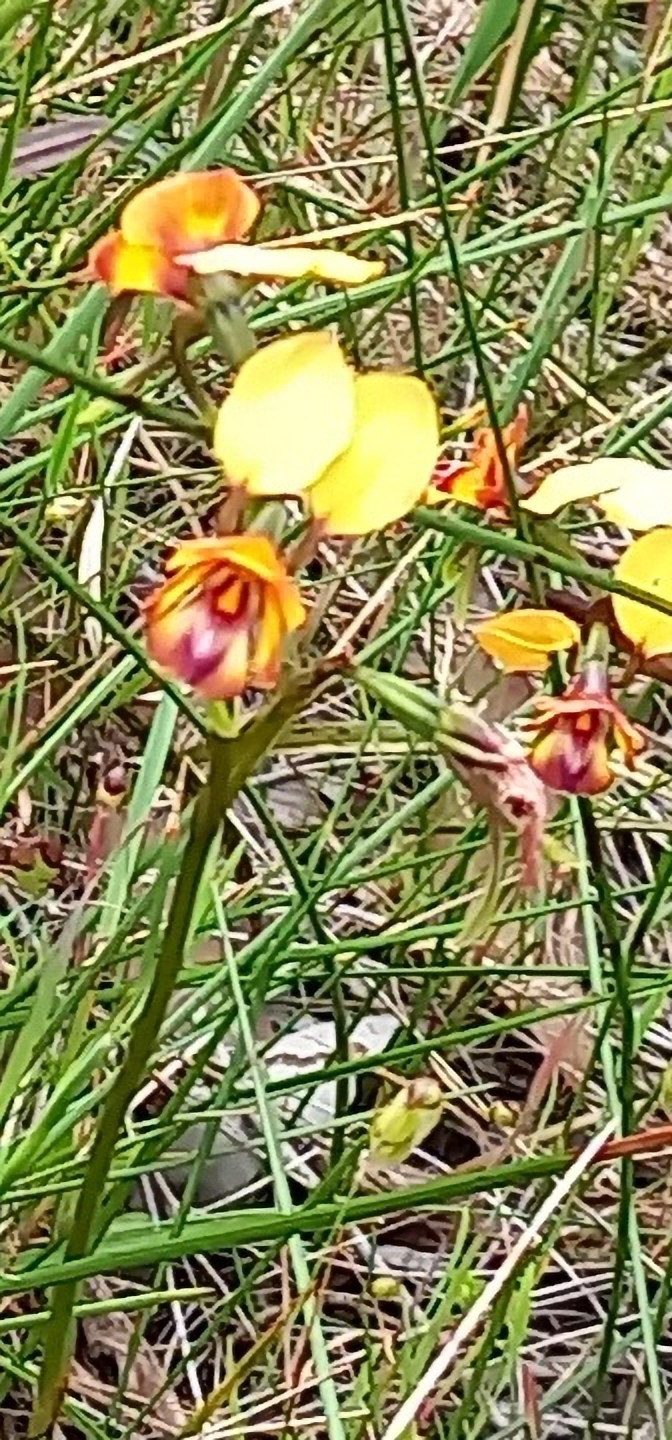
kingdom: Plantae
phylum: Tracheophyta
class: Liliopsida
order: Asparagales
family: Orchidaceae
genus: Diuris
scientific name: Diuris magnifica
